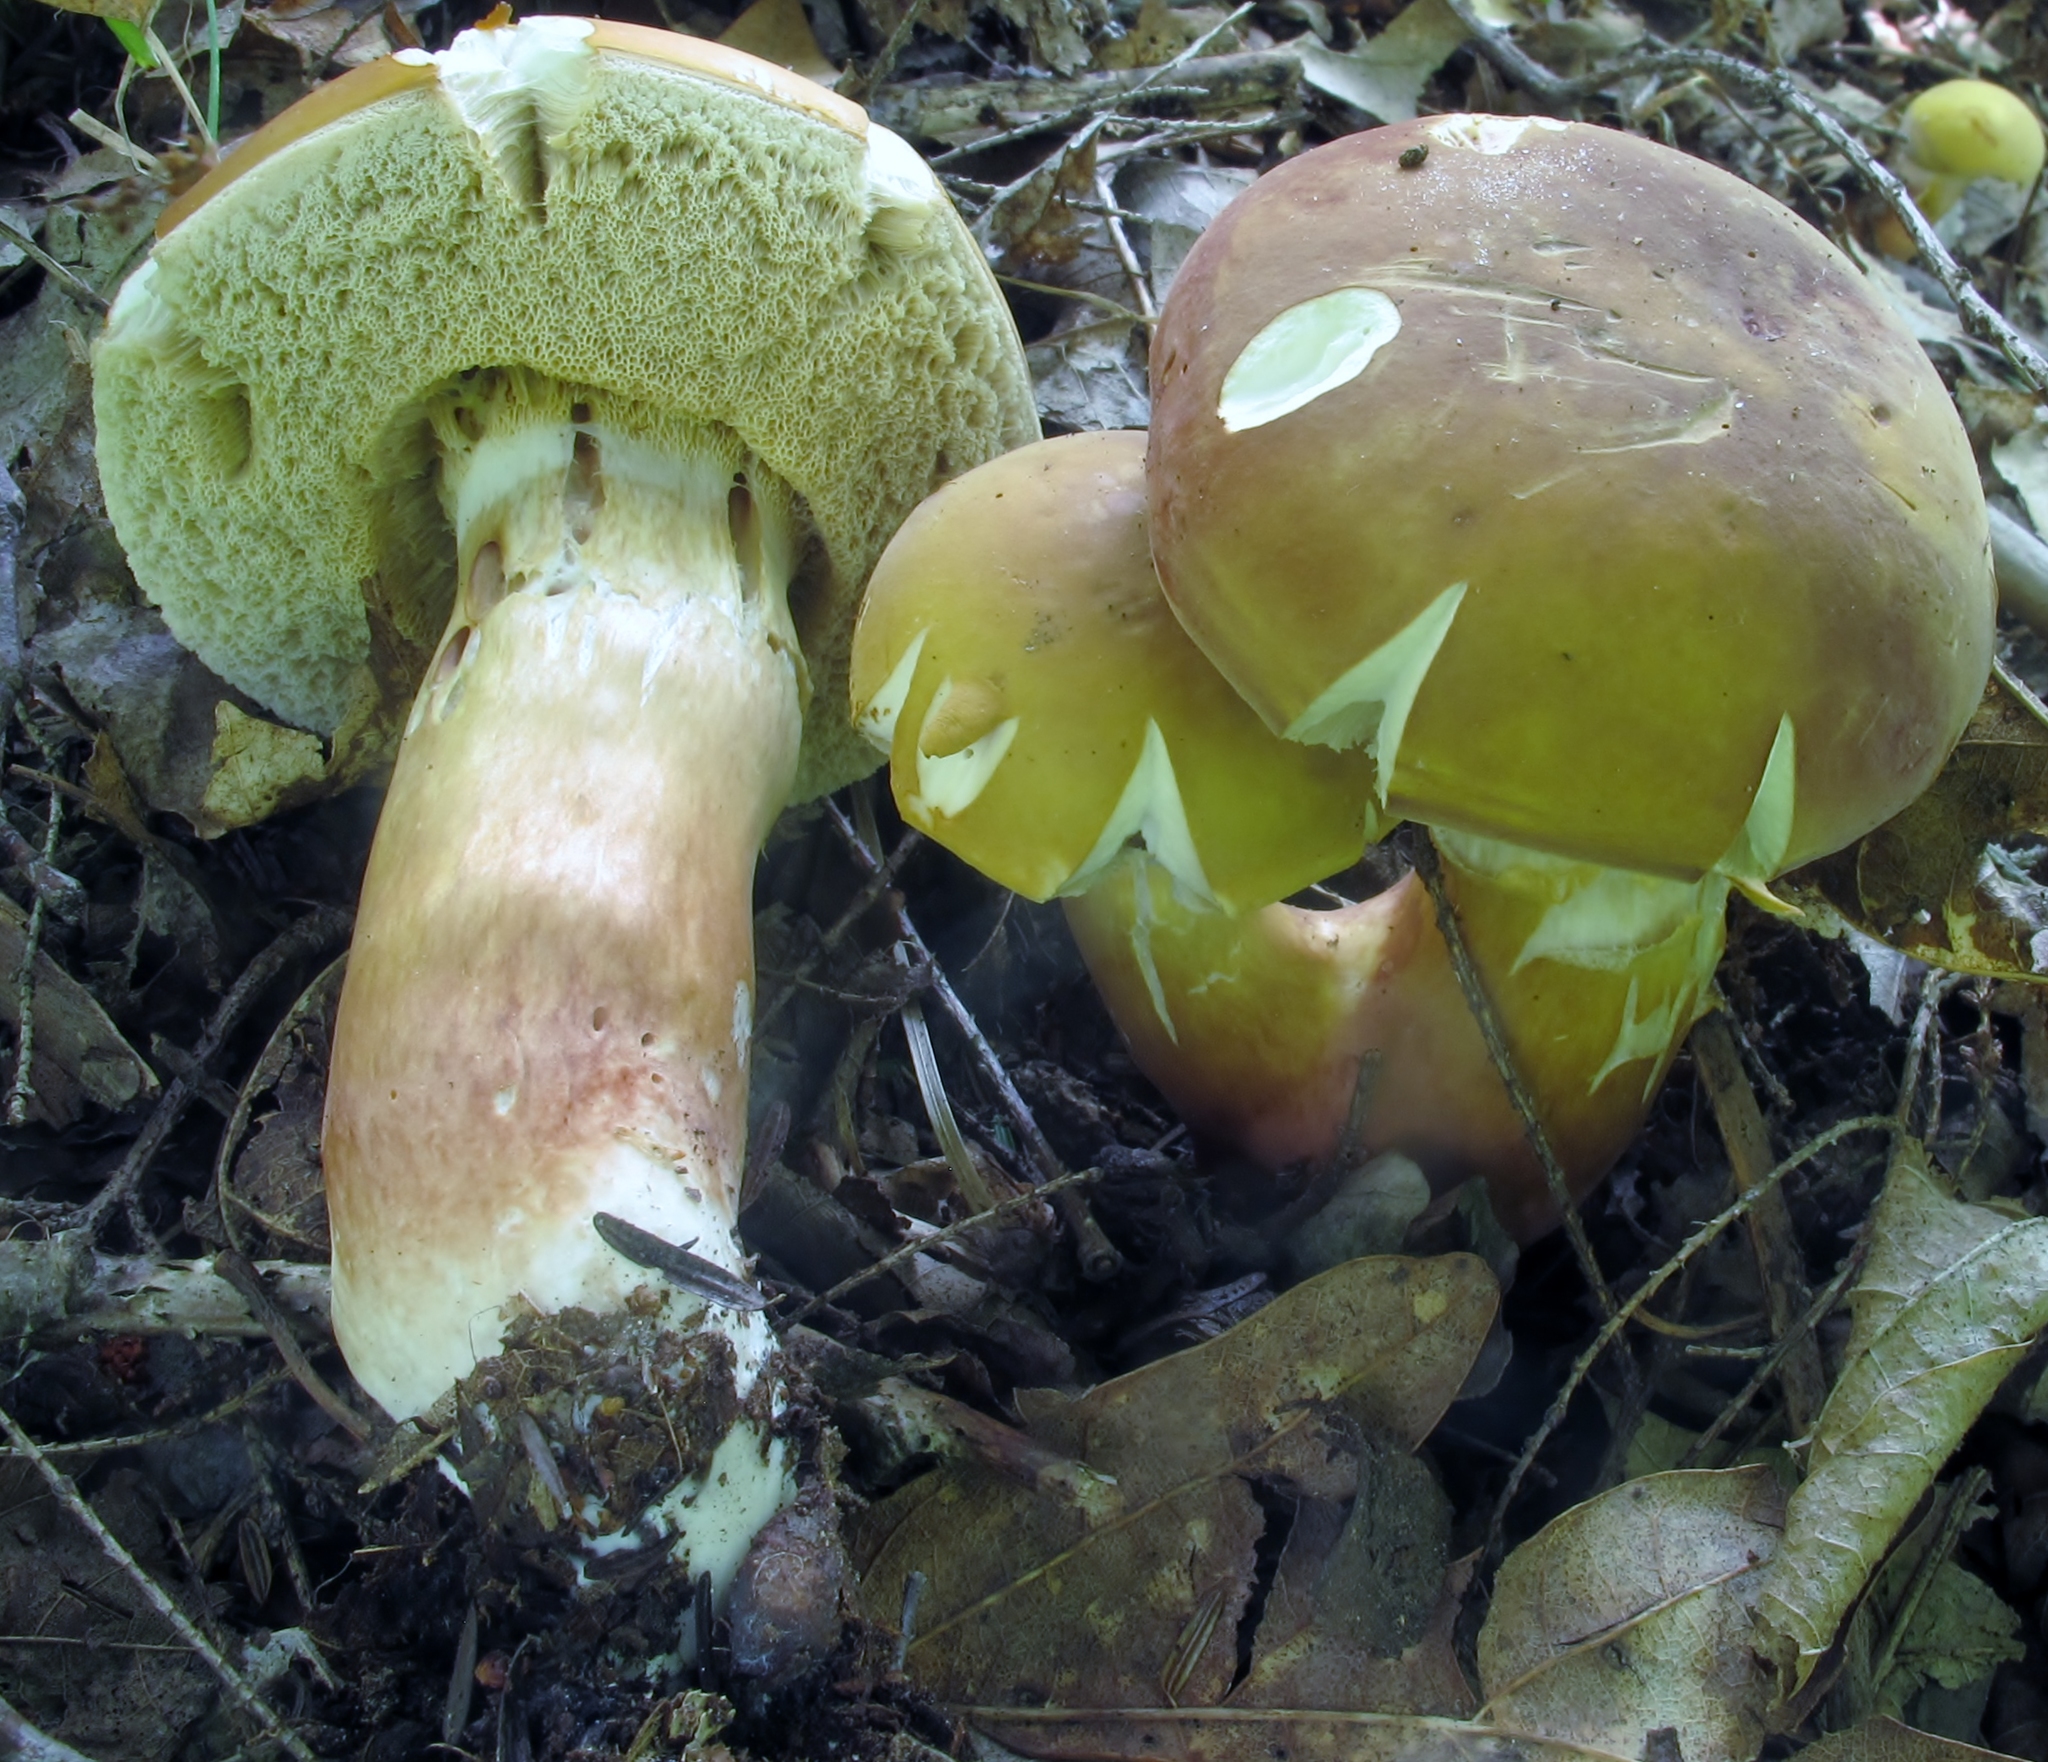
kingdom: Fungi
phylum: Basidiomycota
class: Agaricomycetes
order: Boletales
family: Boletaceae
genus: Xanthoconium
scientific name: Xanthoconium affine
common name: Spotted bolete
